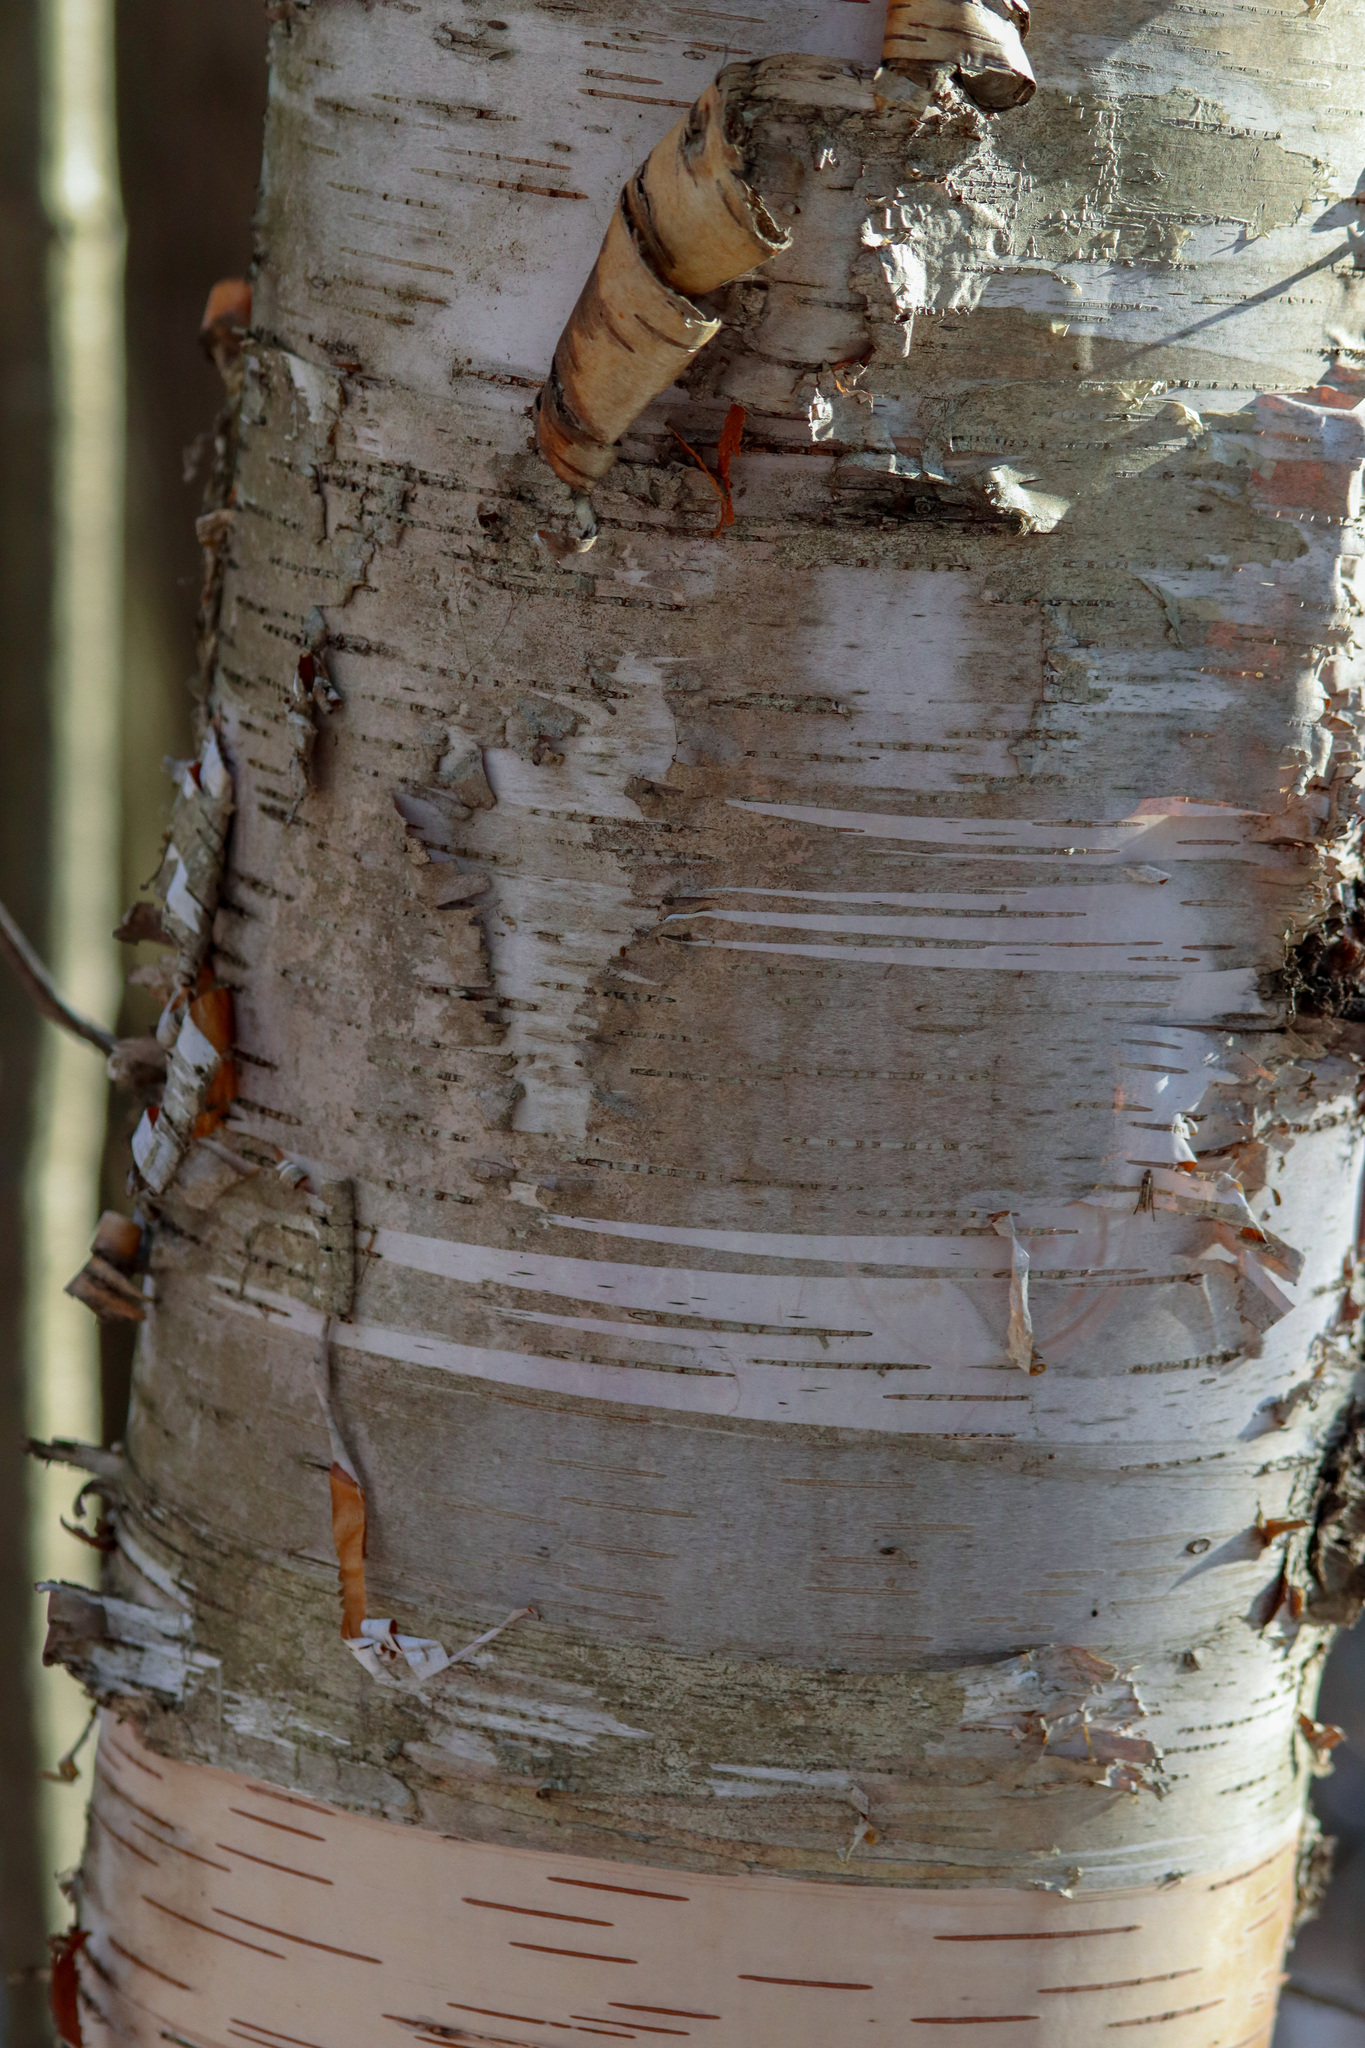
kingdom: Plantae
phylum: Tracheophyta
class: Magnoliopsida
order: Fagales
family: Betulaceae
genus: Betula
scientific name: Betula papyrifera
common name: Paper birch
